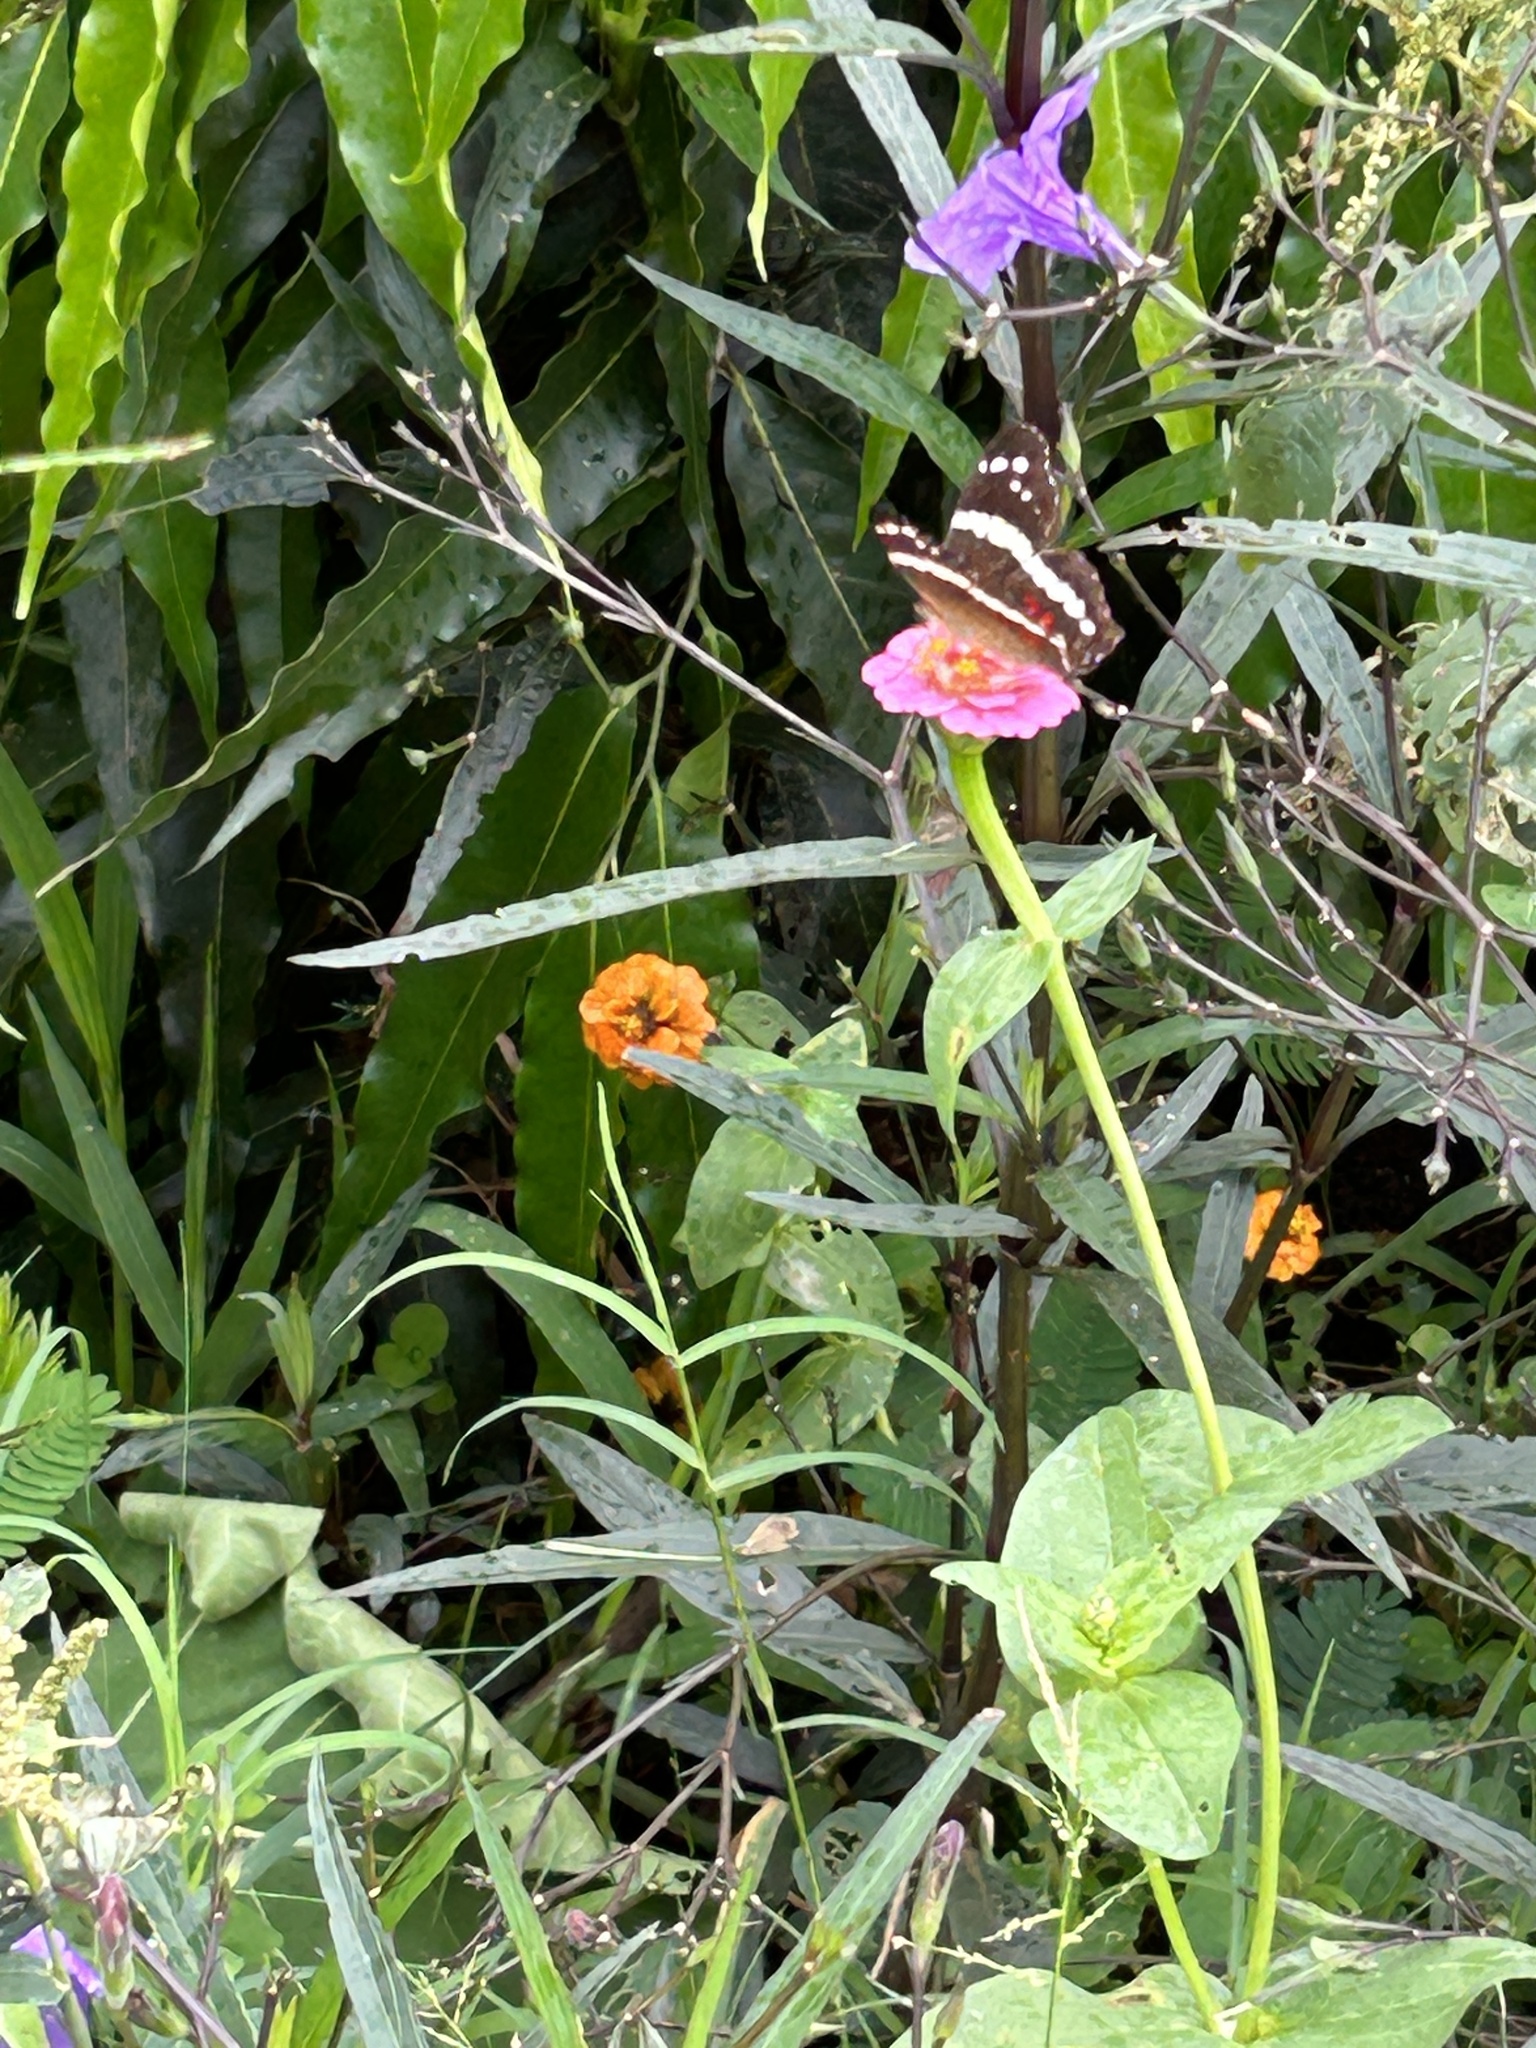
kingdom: Animalia
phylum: Arthropoda
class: Insecta
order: Lepidoptera
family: Nymphalidae
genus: Anartia
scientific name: Anartia fatima
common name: Banded peacock
